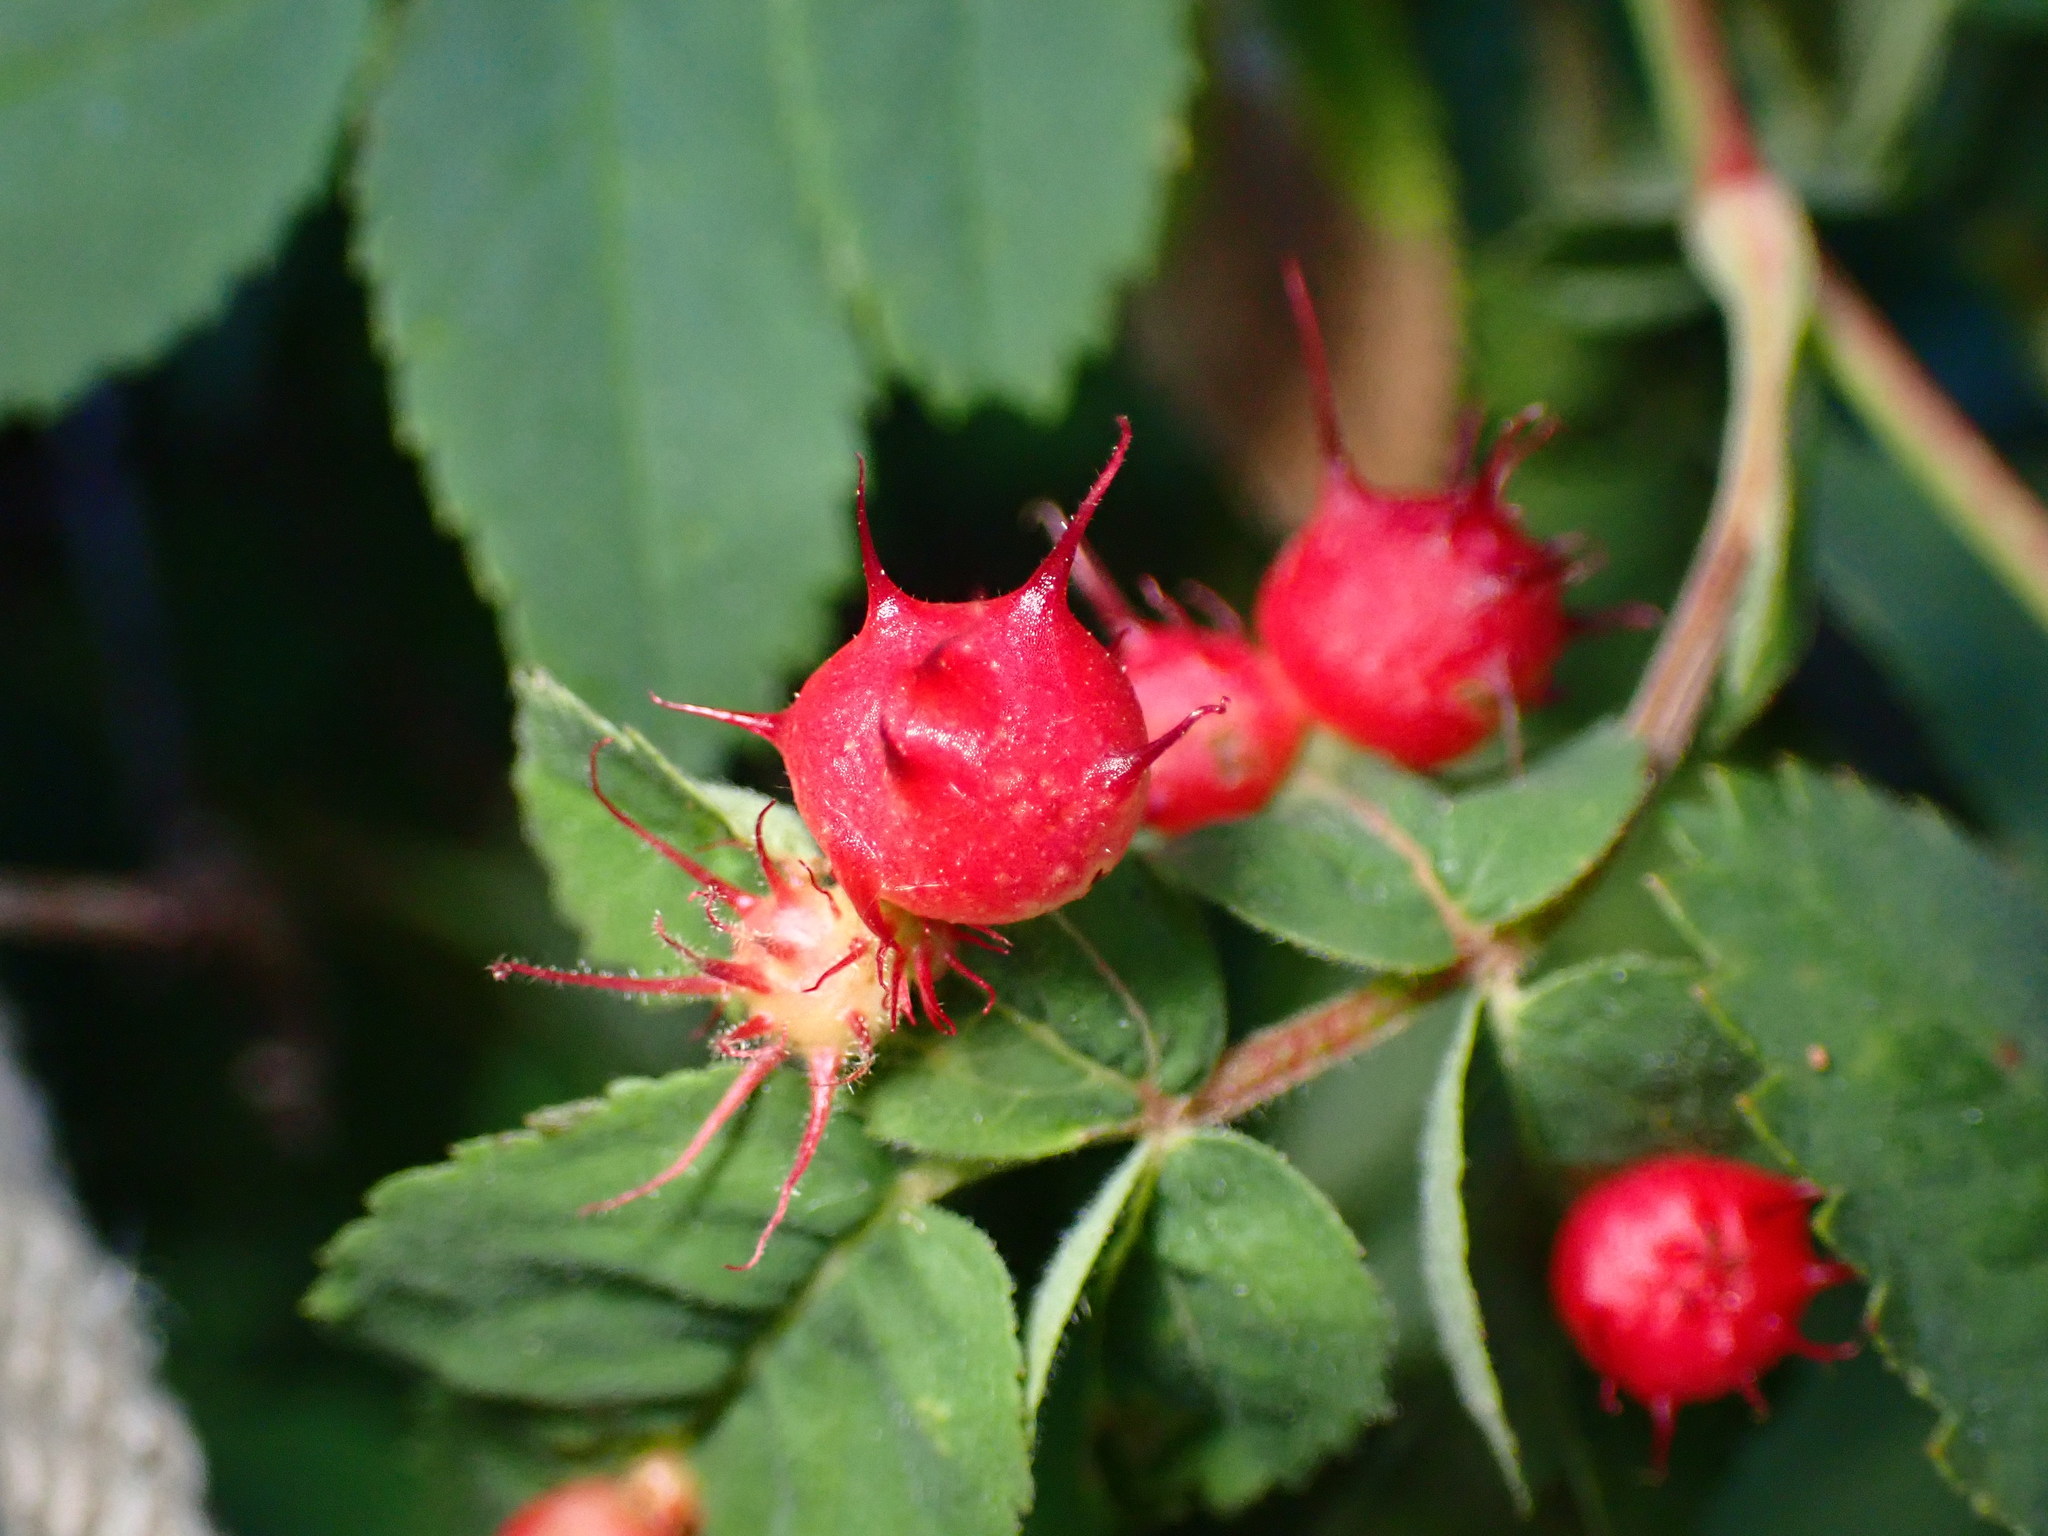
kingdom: Animalia
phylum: Arthropoda
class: Insecta
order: Hymenoptera
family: Cynipidae
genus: Diplolepis
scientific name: Diplolepis polita
